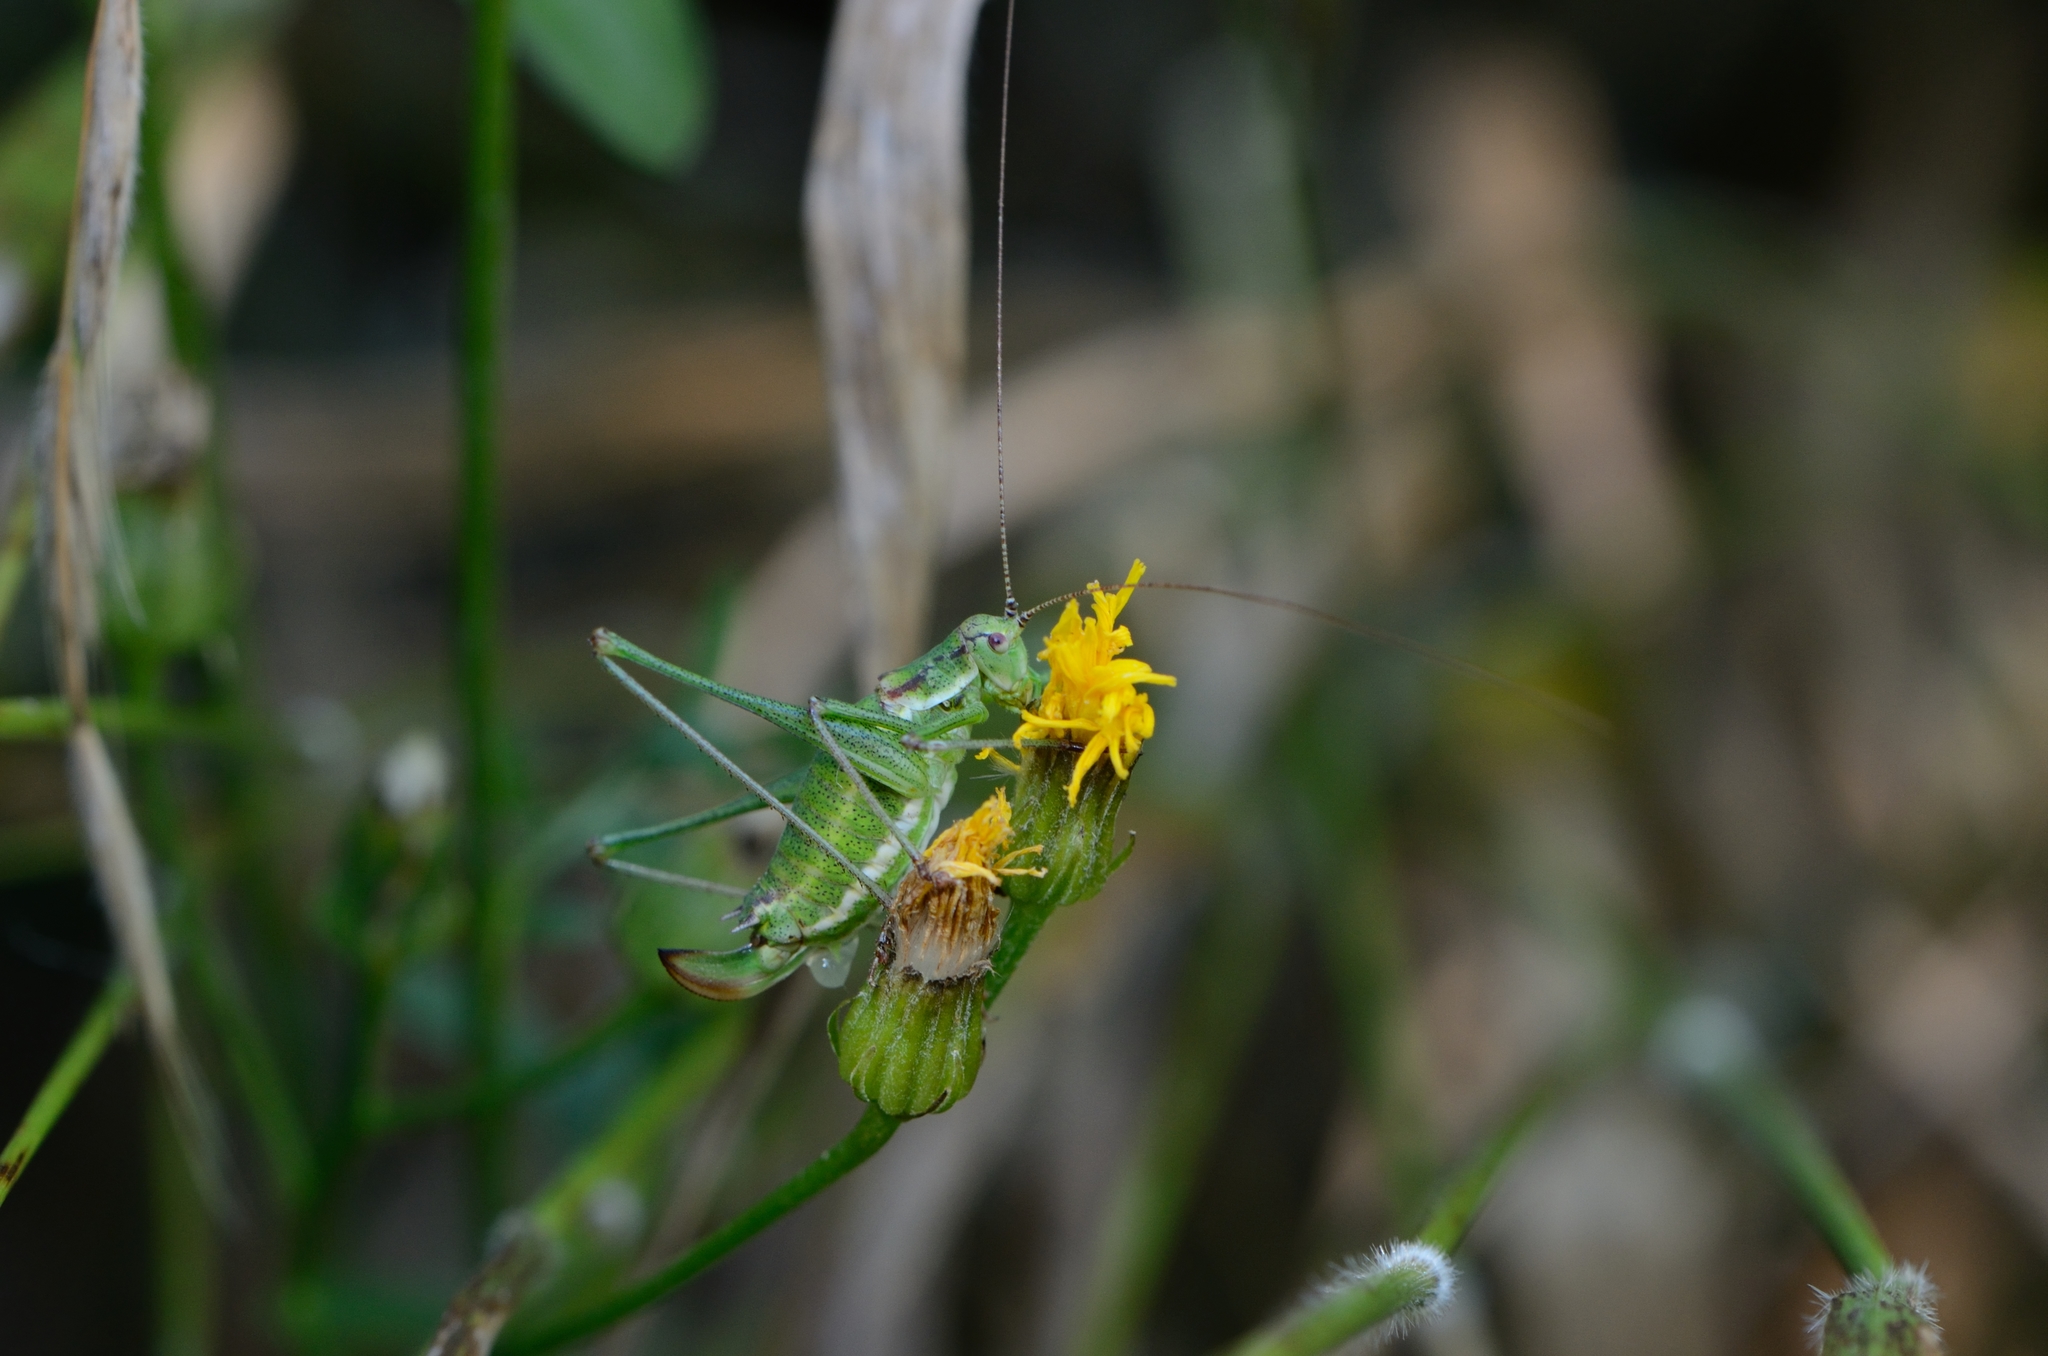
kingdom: Animalia
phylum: Arthropoda
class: Insecta
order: Orthoptera
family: Tettigoniidae
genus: Leptophyes
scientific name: Leptophyes albovittata
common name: Striped bush-cricket
